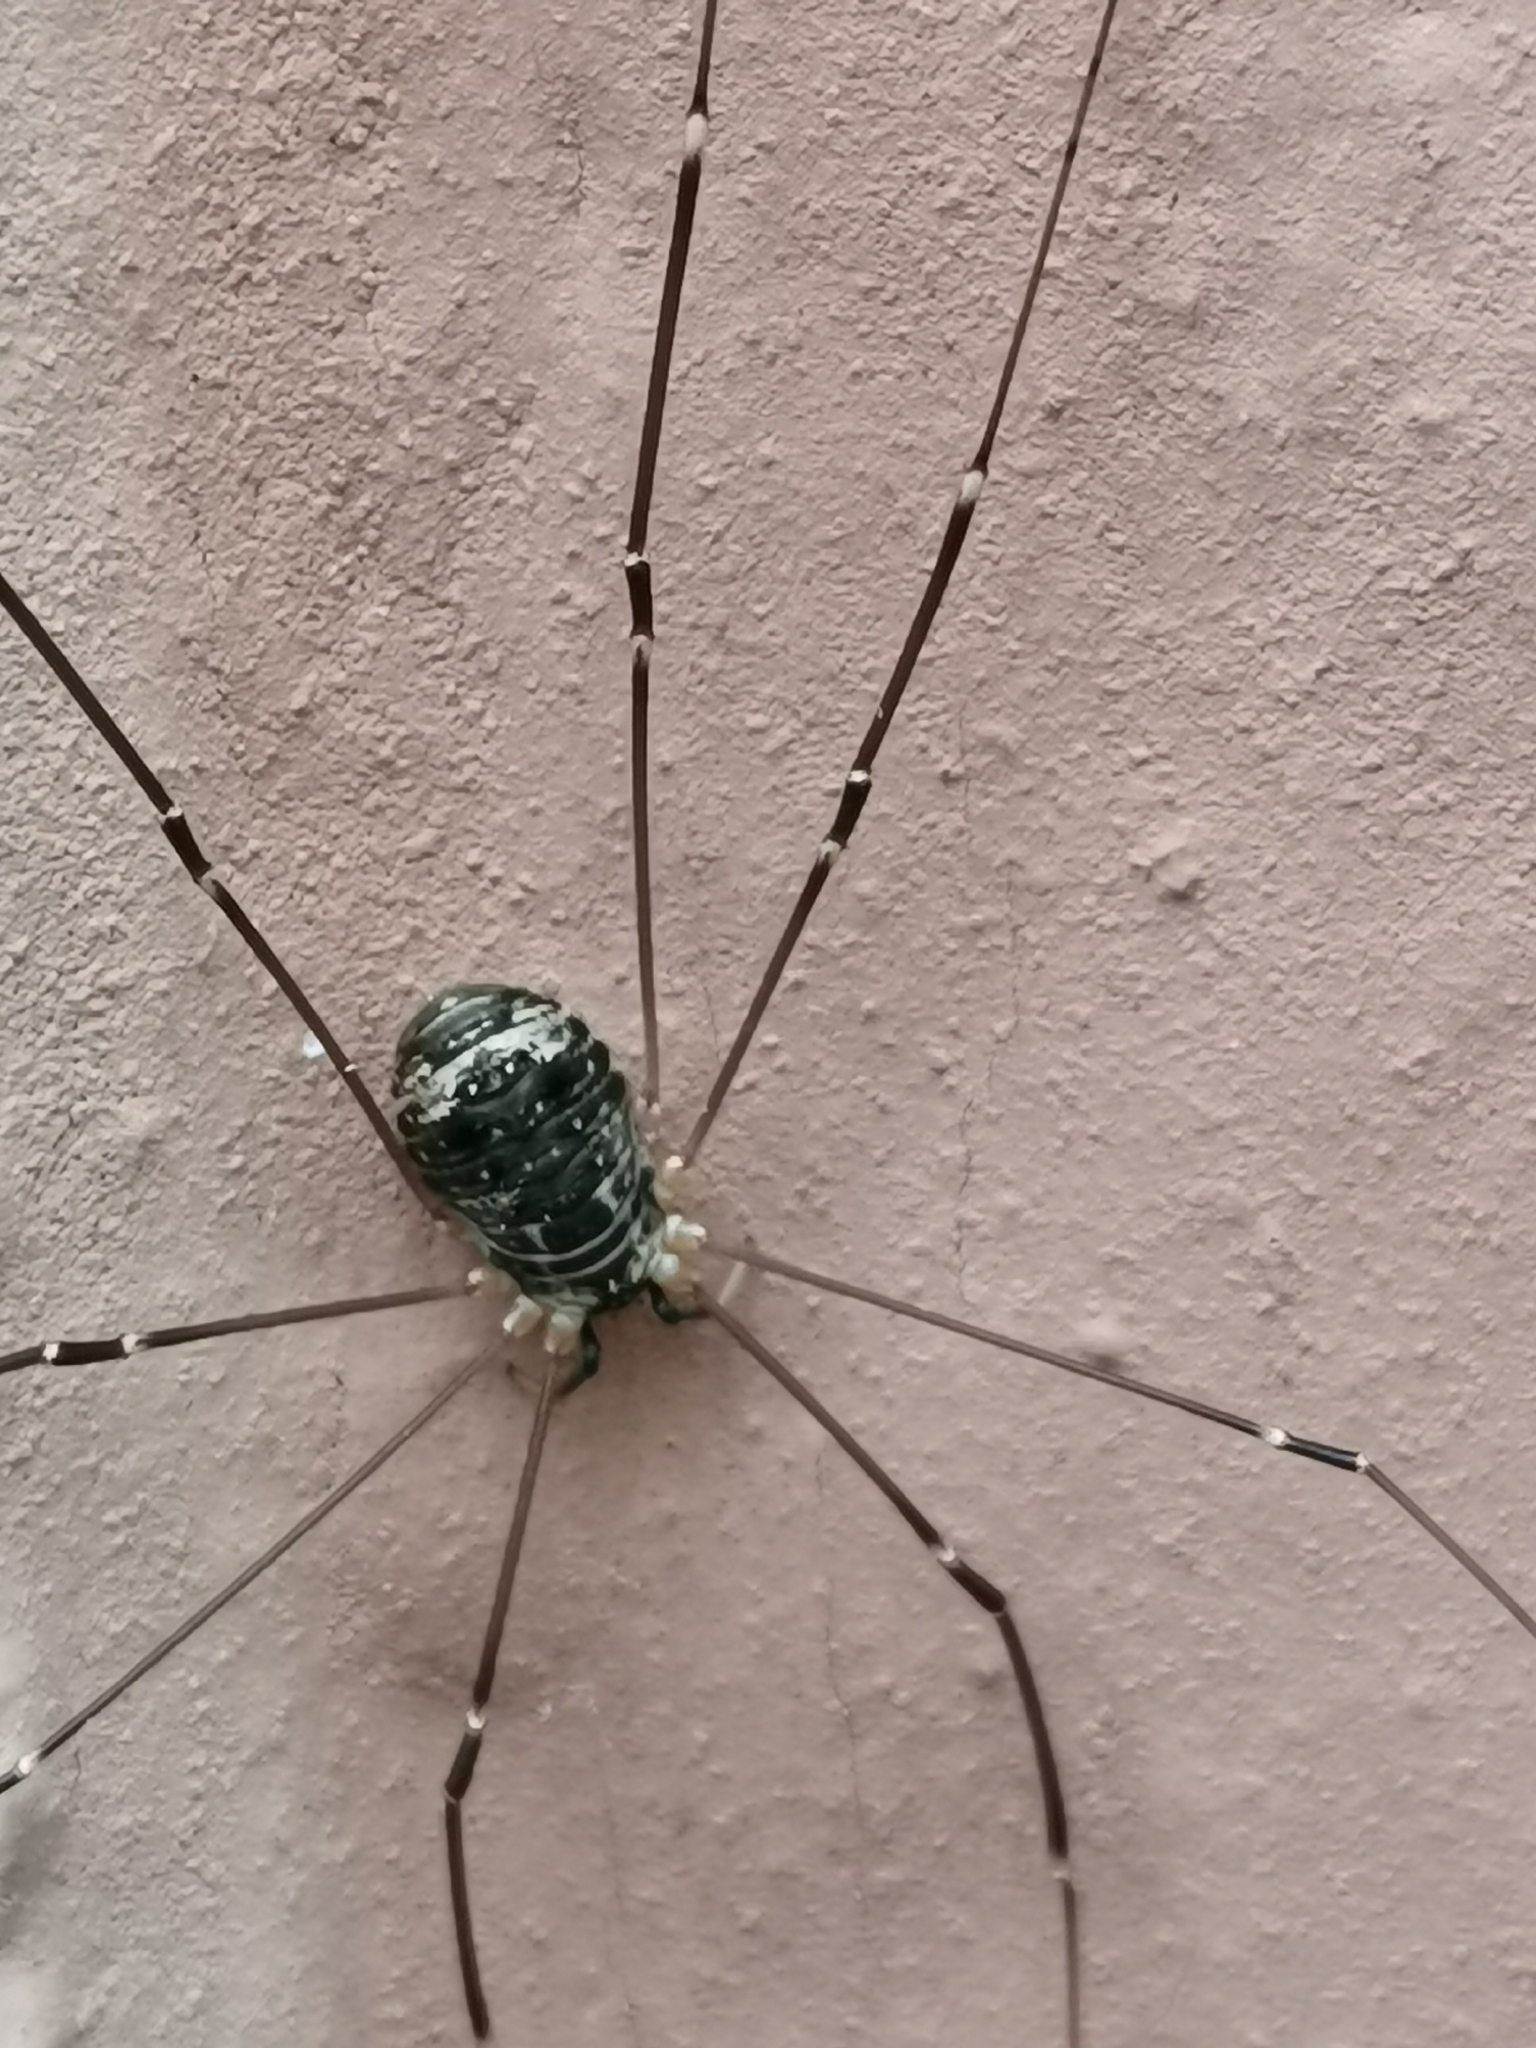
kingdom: Animalia
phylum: Arthropoda
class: Arachnida
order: Opiliones
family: Sclerosomatidae
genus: Leiobunum
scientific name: Leiobunum gracile
